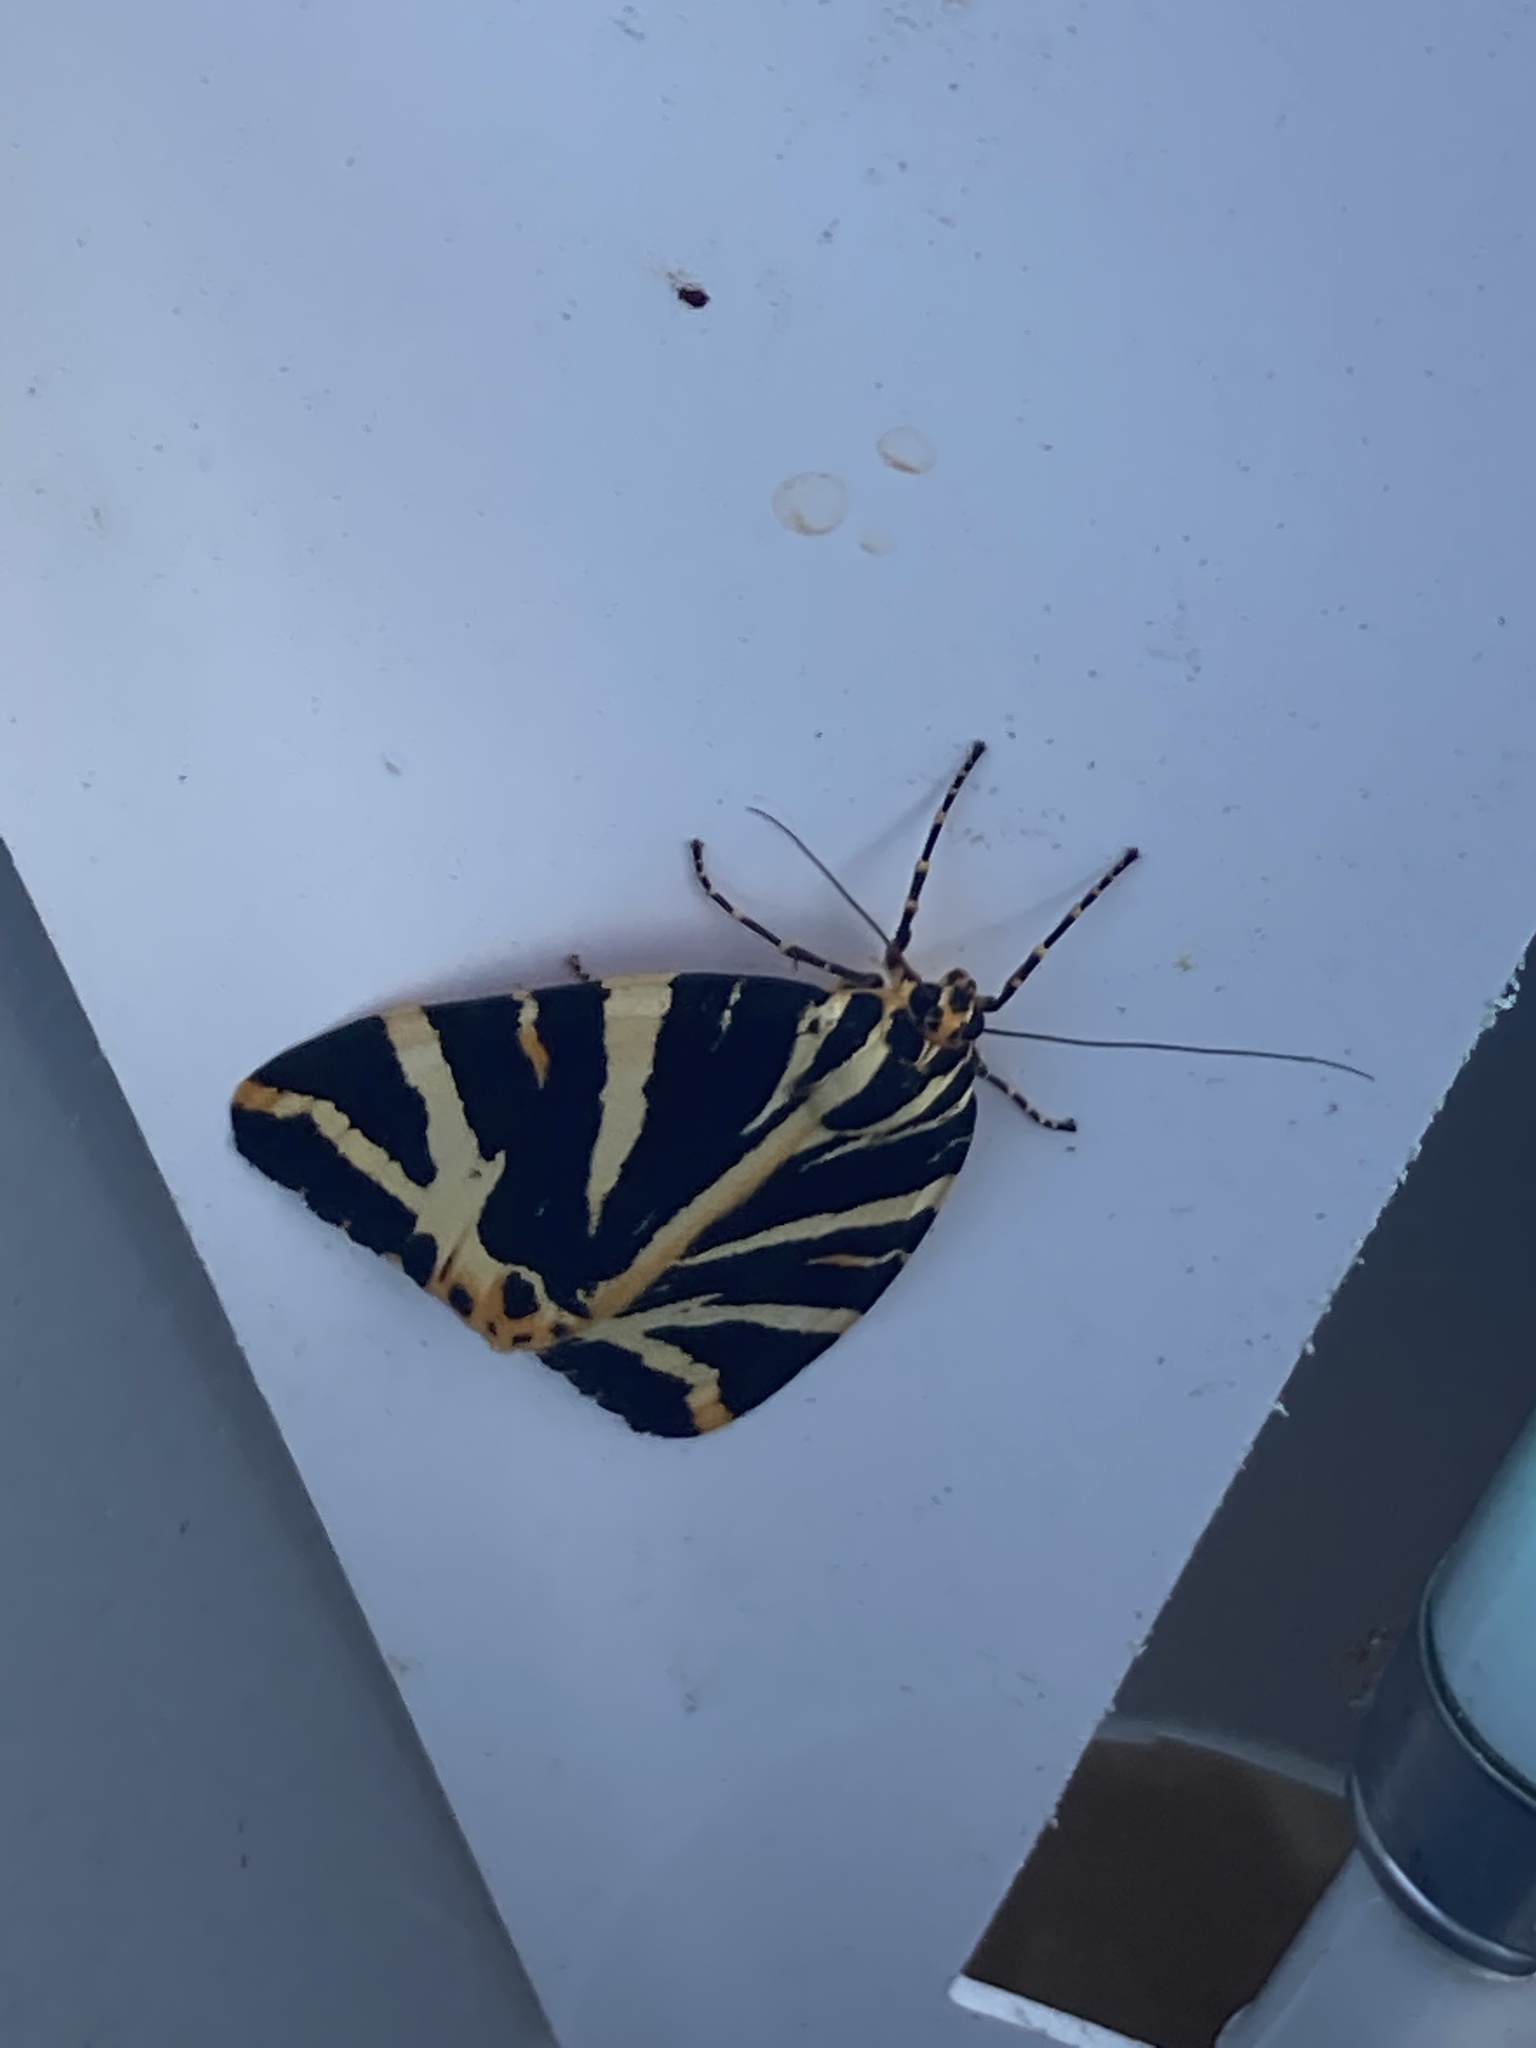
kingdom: Animalia
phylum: Arthropoda
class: Insecta
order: Lepidoptera
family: Erebidae
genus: Euplagia
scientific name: Euplagia quadripunctaria
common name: Jersey tiger
